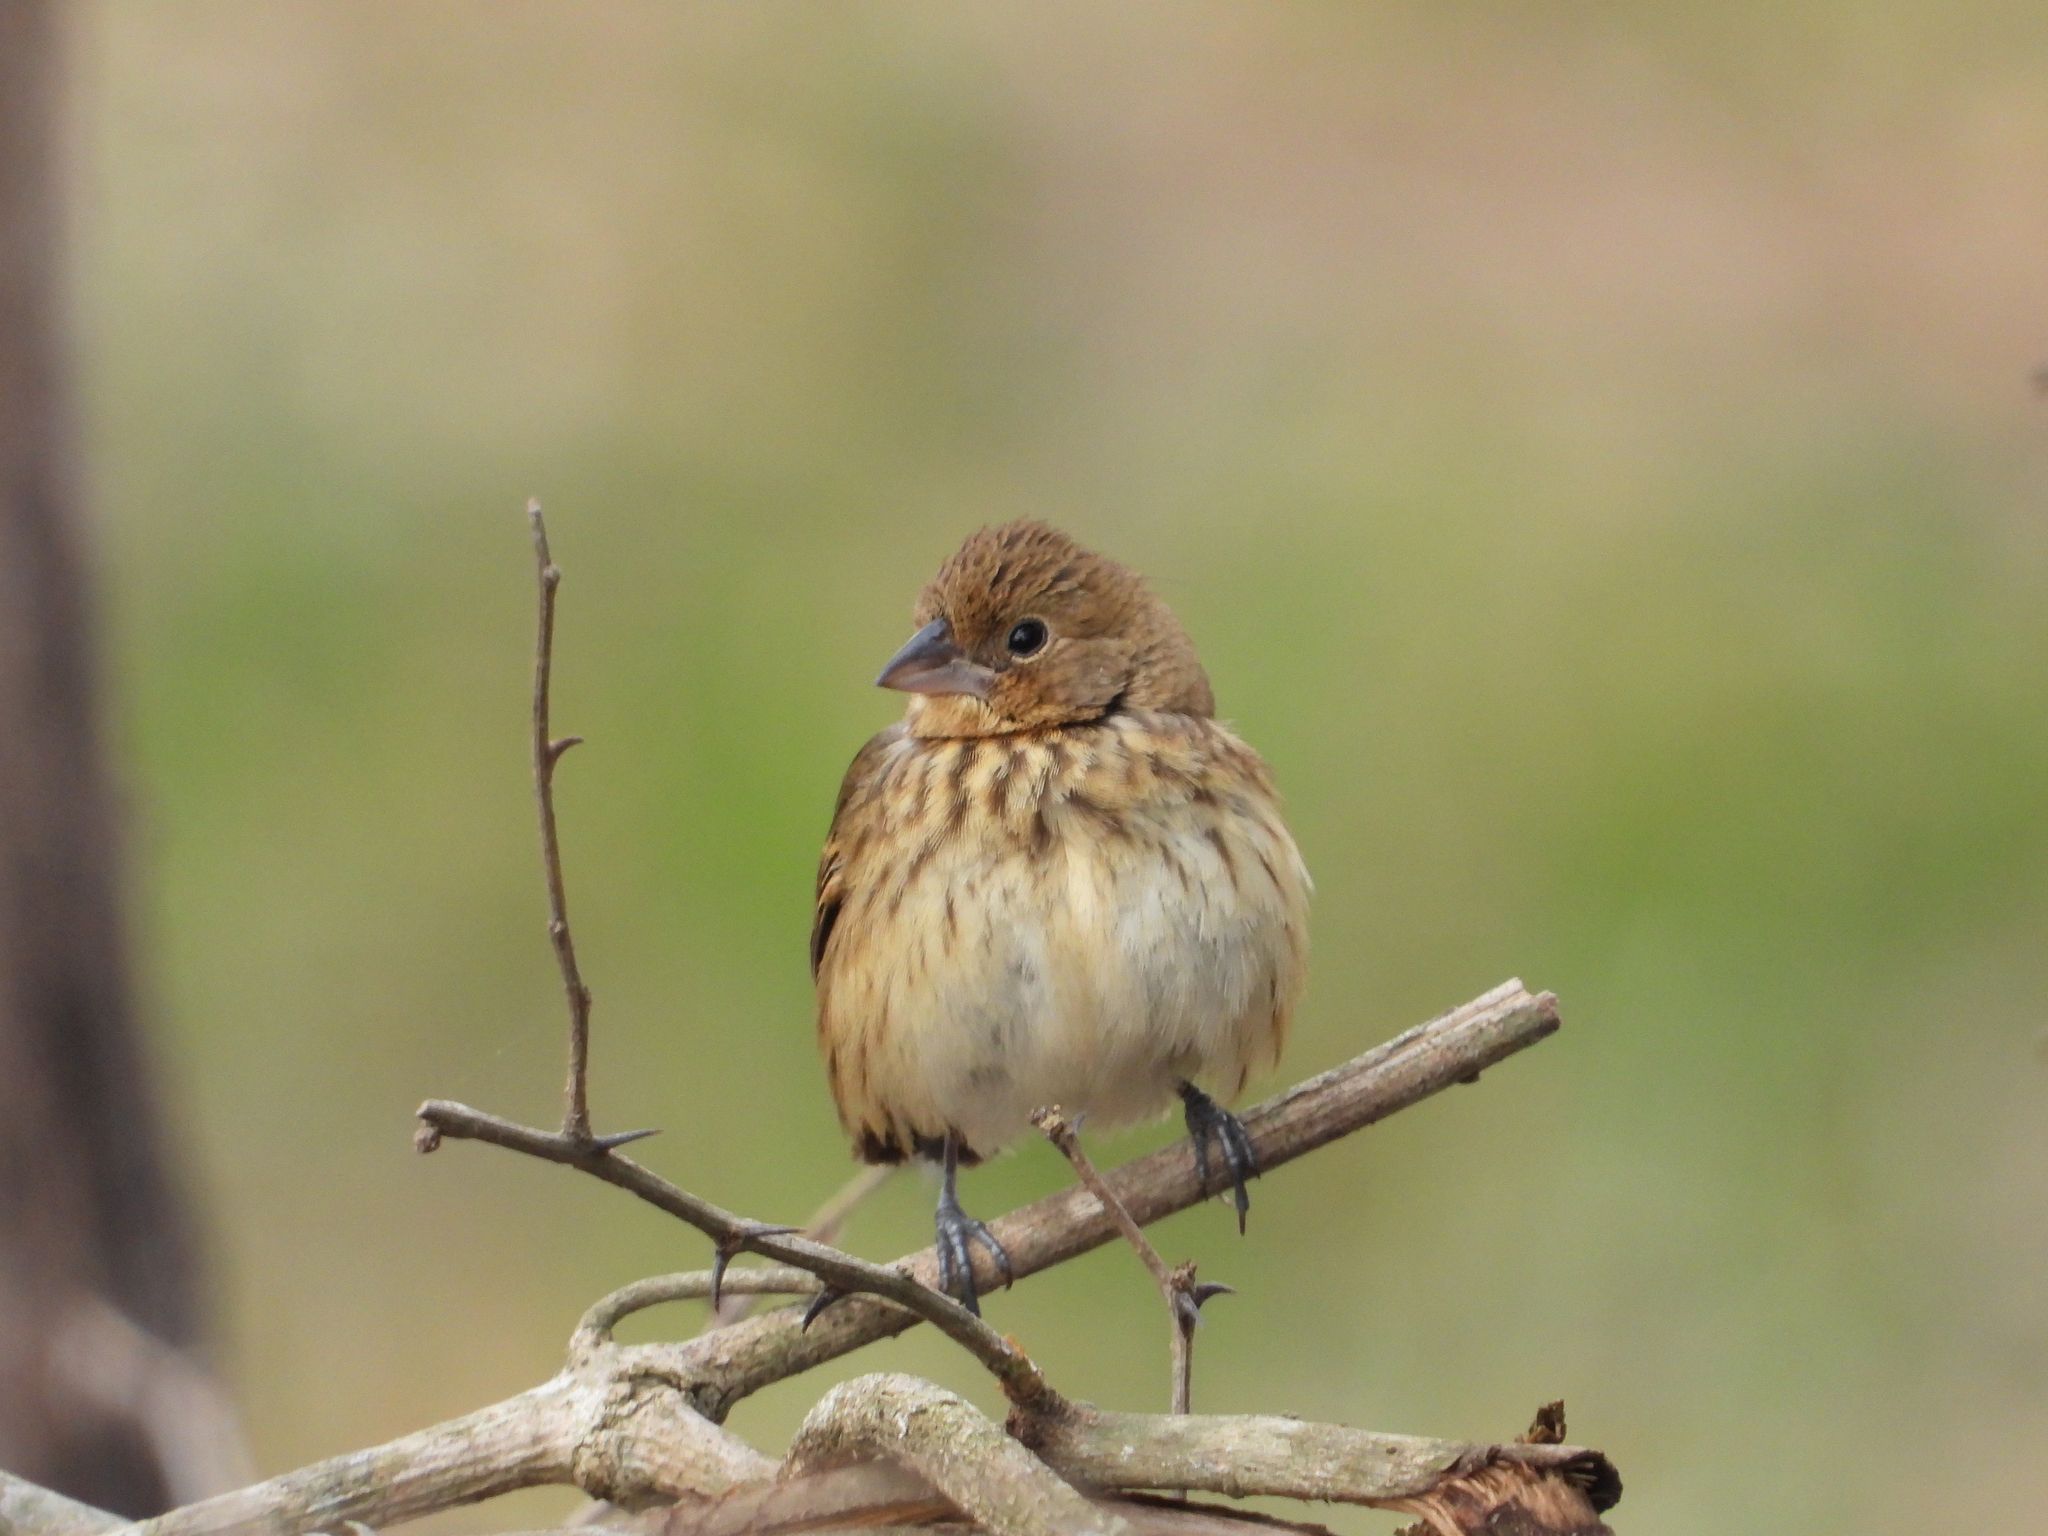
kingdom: Animalia
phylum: Chordata
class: Aves
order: Passeriformes
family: Thraupidae
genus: Volatinia
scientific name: Volatinia jacarina
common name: Blue-black grassquit
